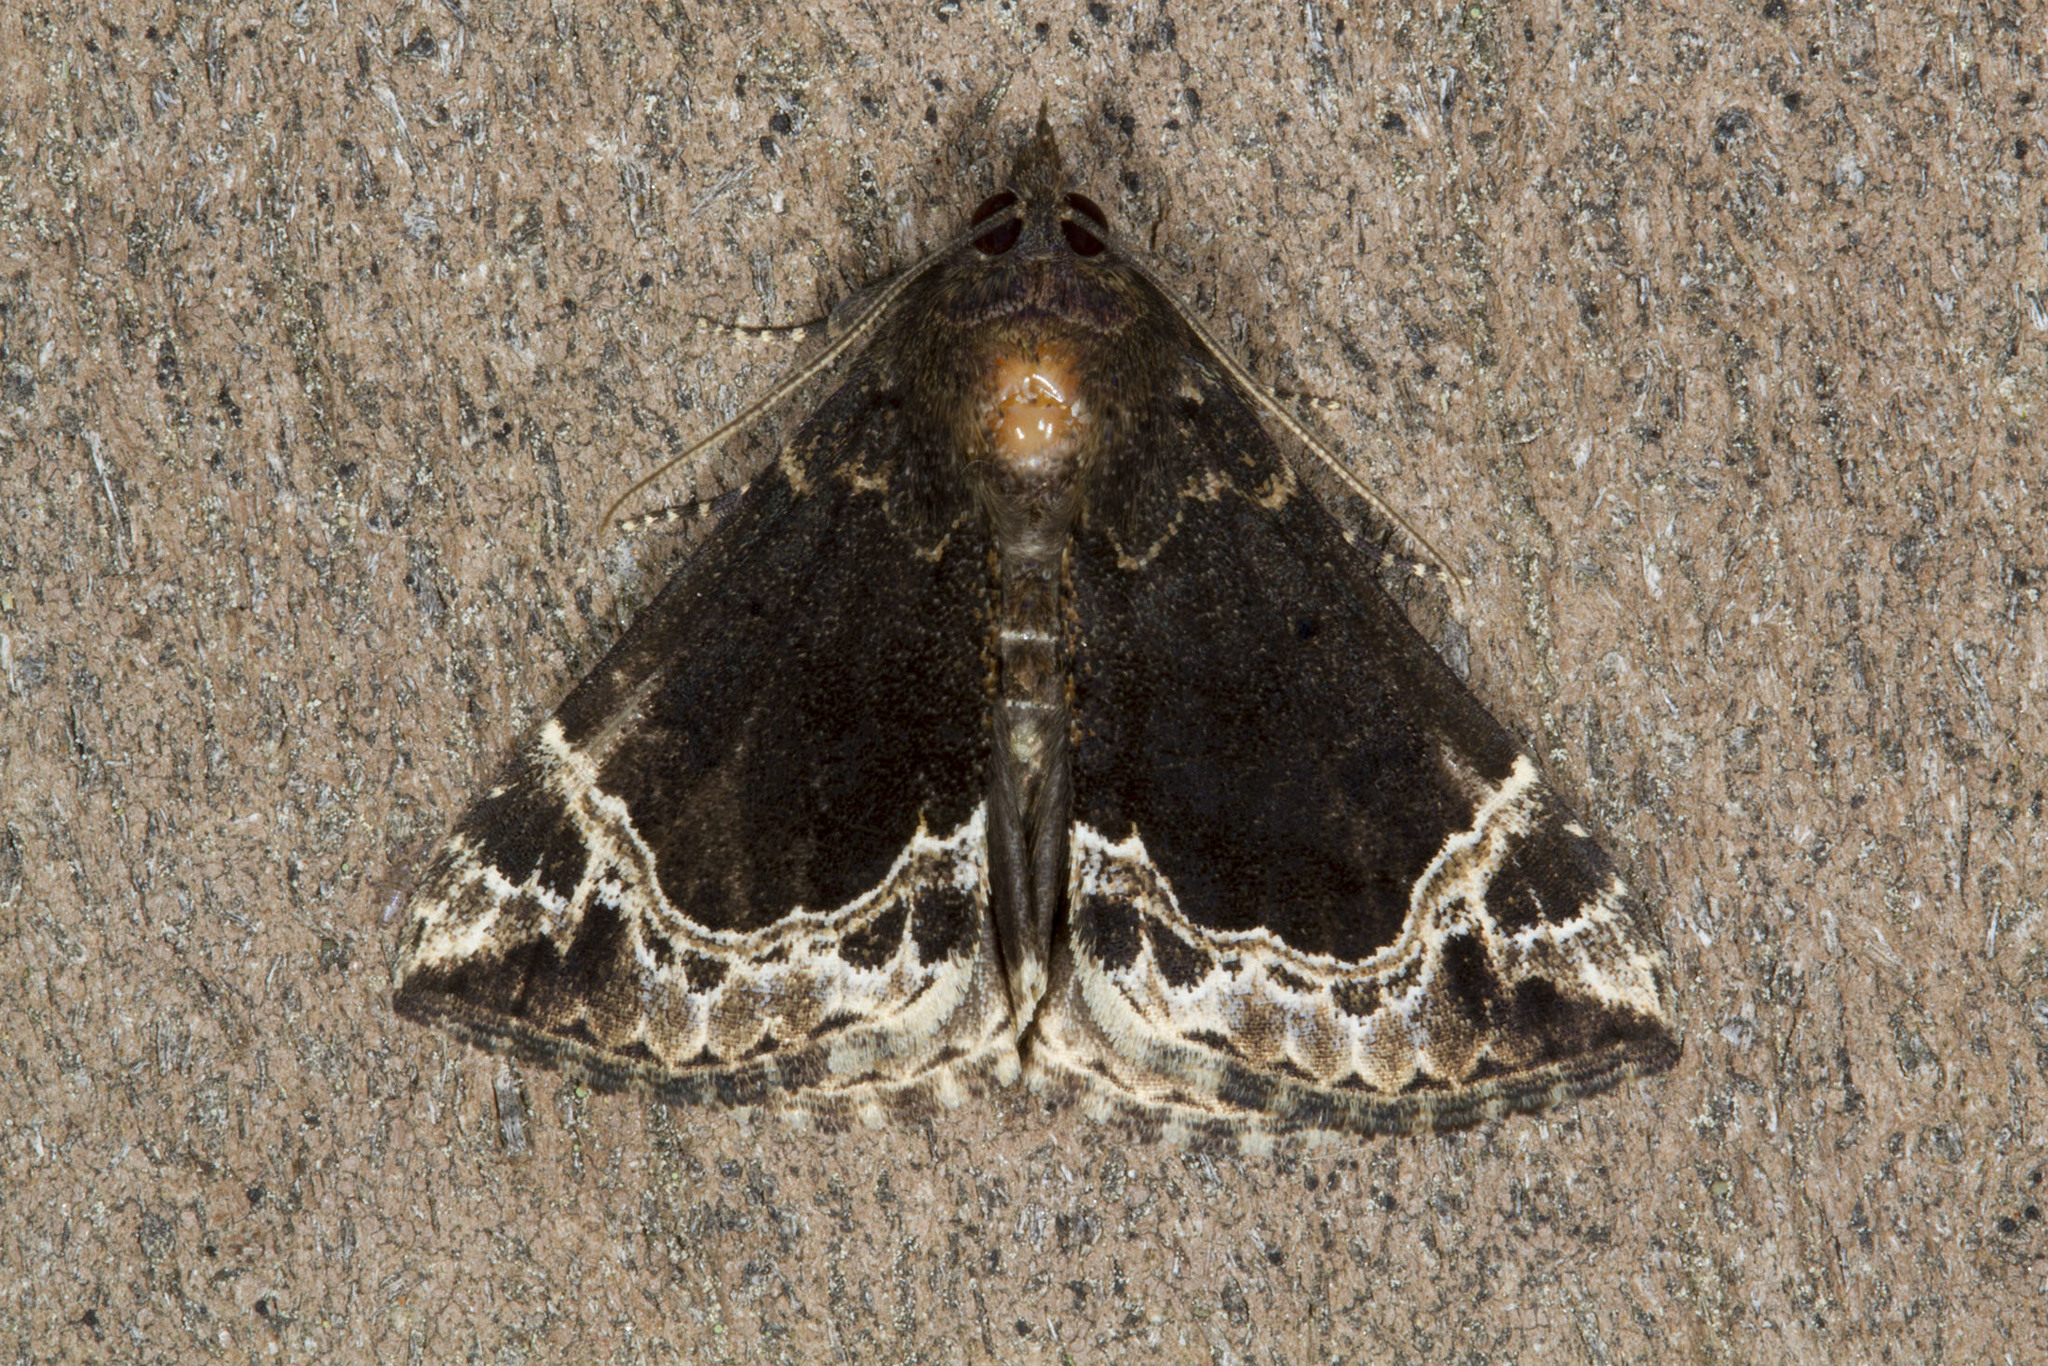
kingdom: Animalia
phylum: Arthropoda
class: Insecta
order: Lepidoptera
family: Erebidae
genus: Hypena
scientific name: Hypena abalienalis
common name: White-lined snout
